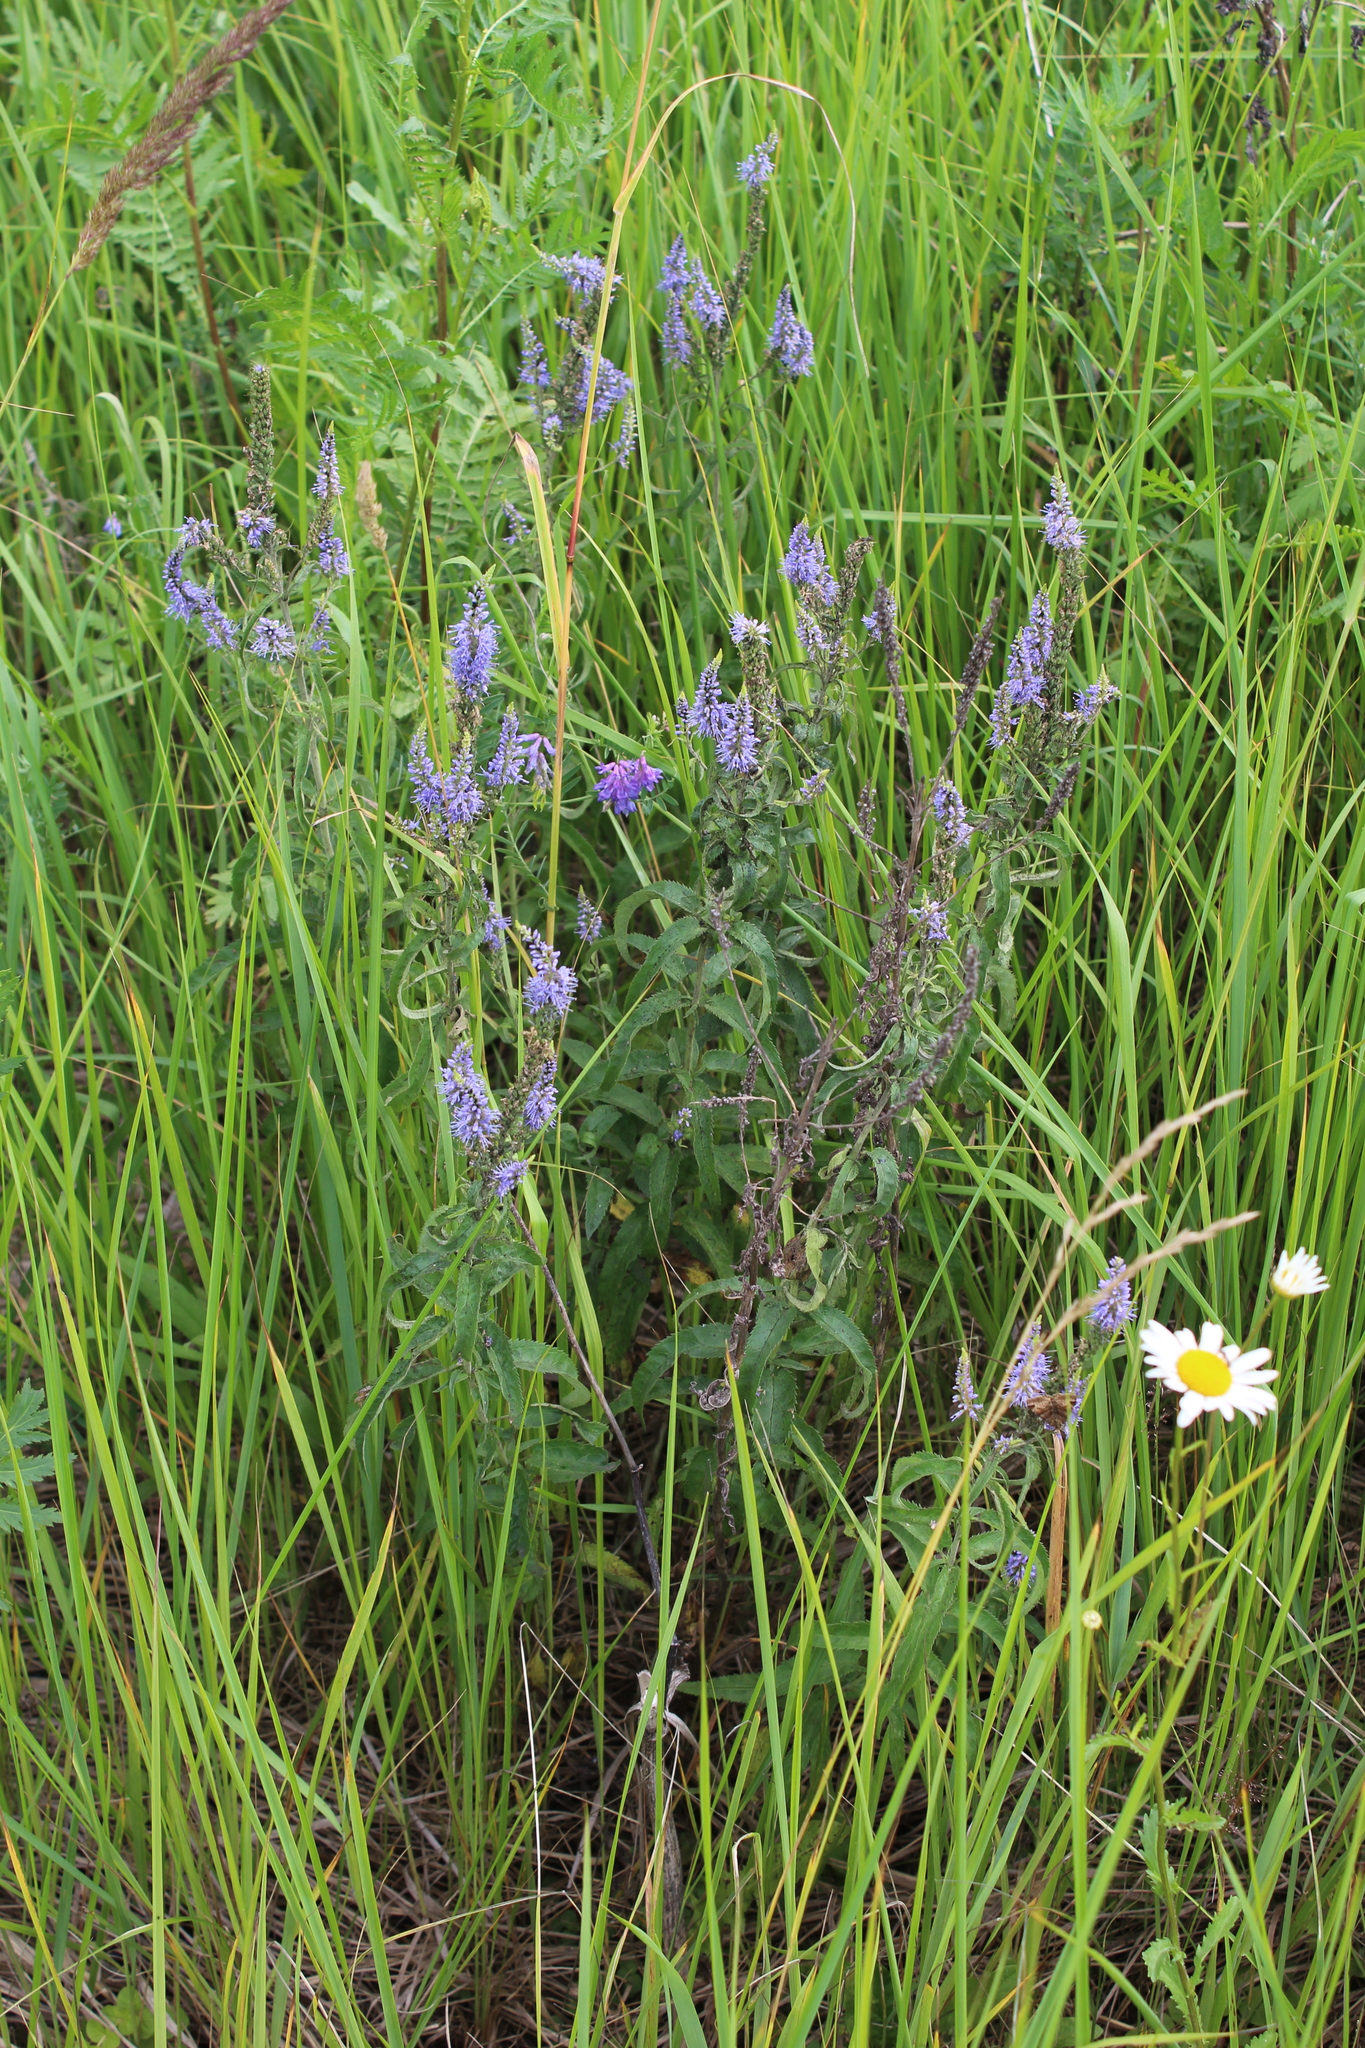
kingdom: Plantae
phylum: Tracheophyta
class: Magnoliopsida
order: Lamiales
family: Plantaginaceae
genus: Veronica
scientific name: Veronica longifolia
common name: Garden speedwell
